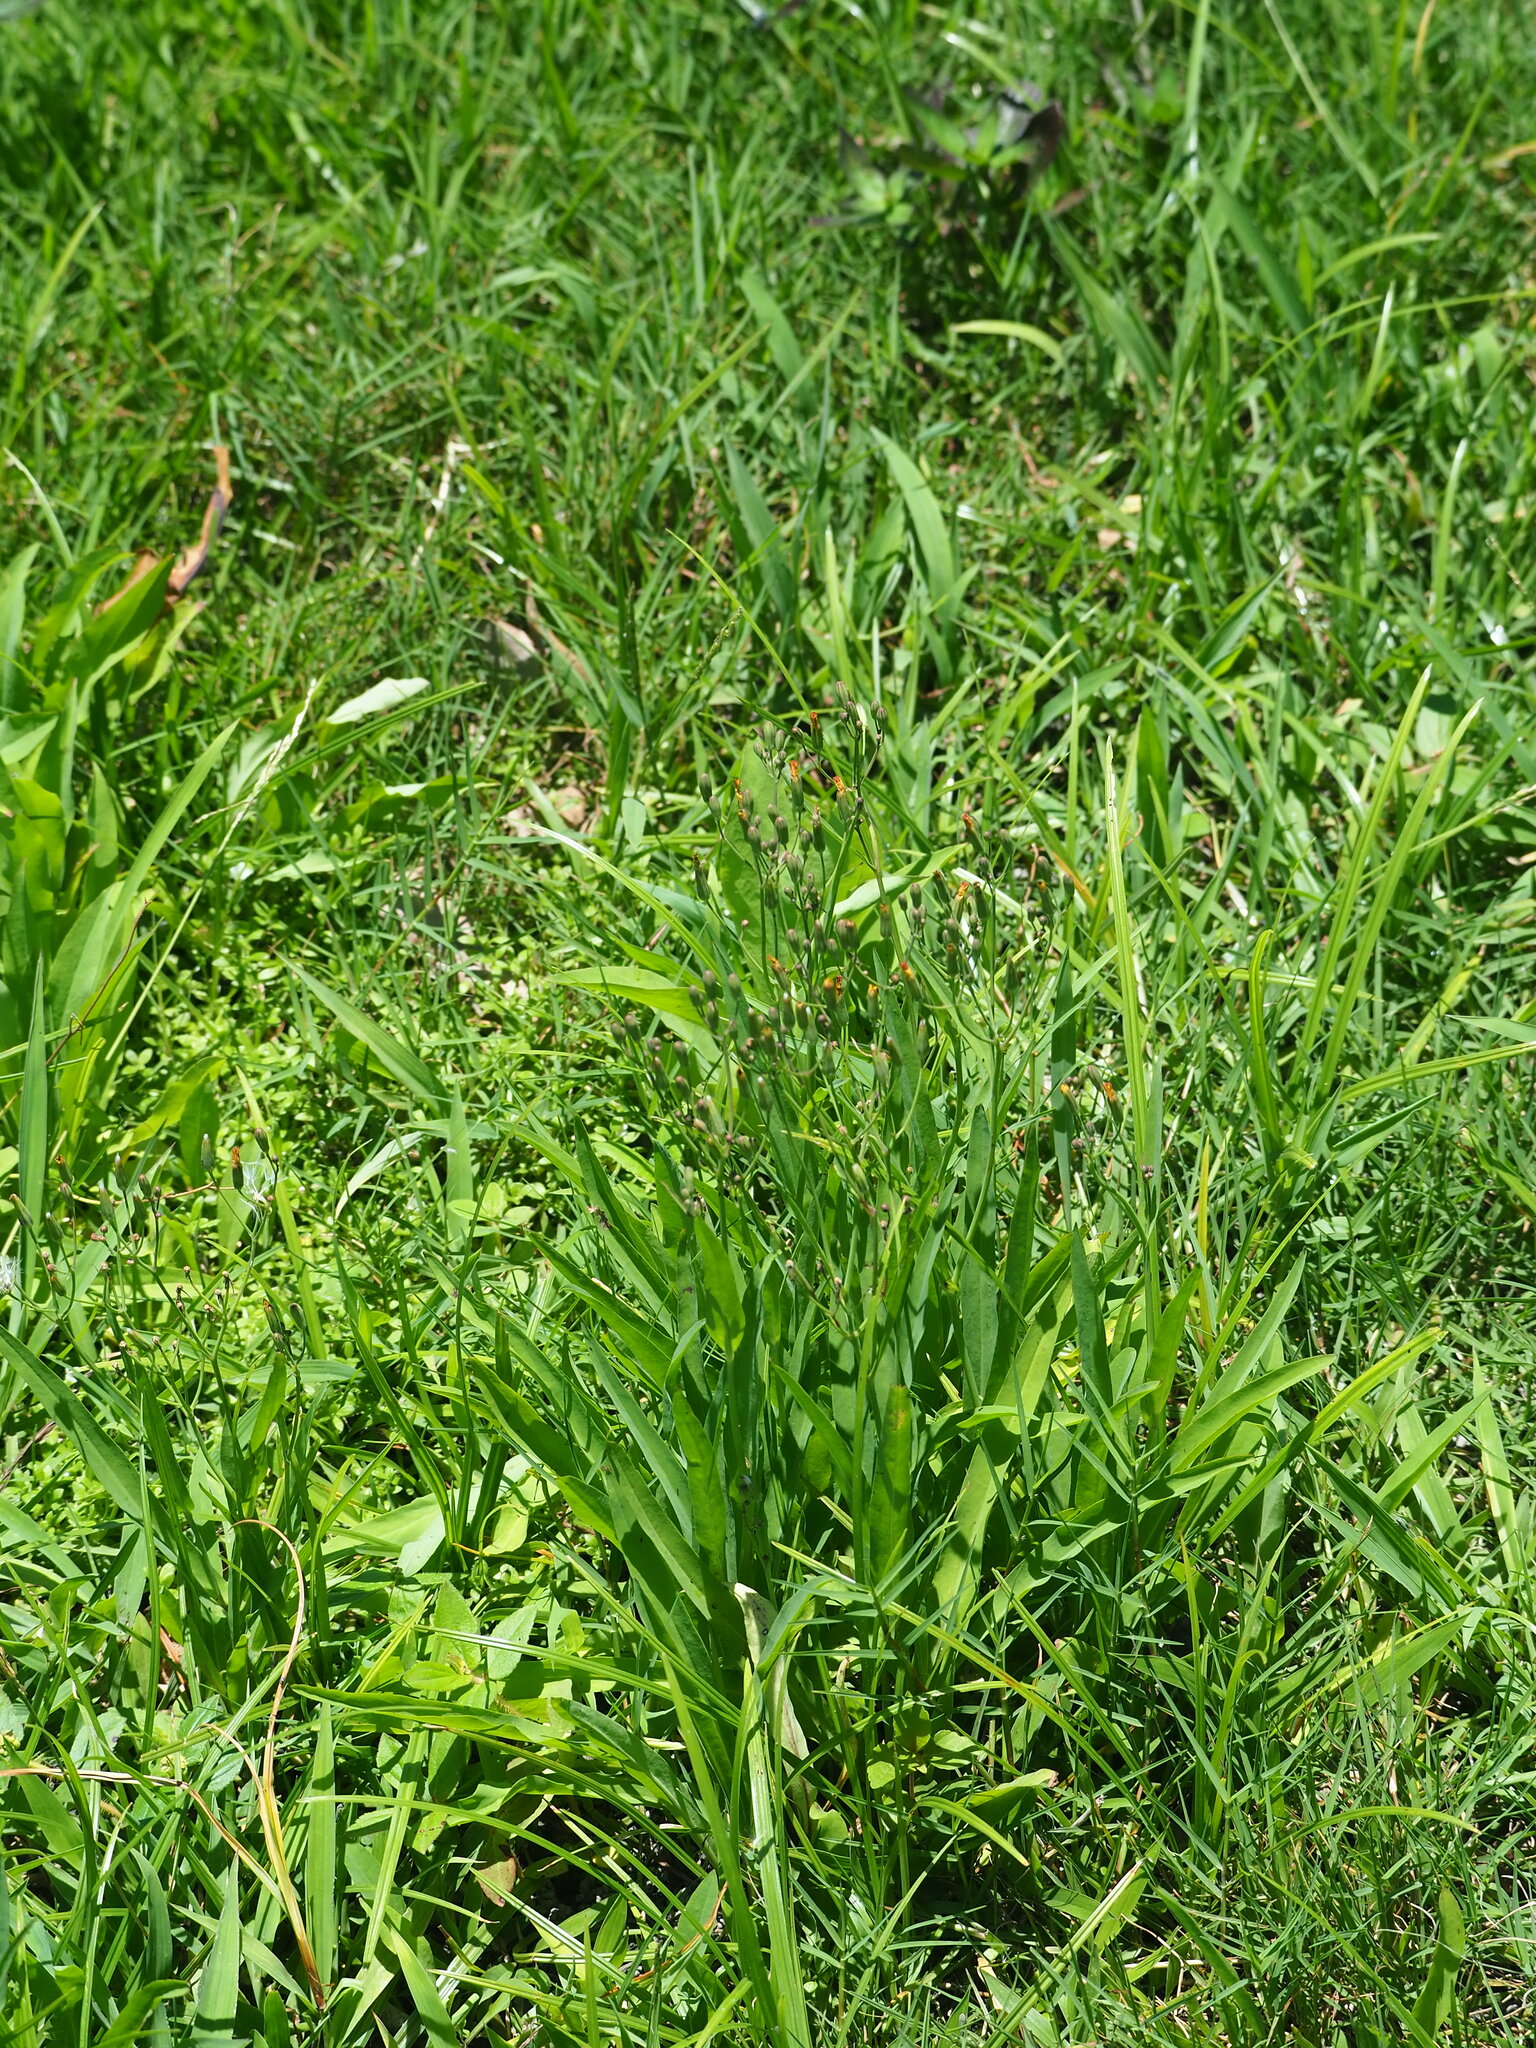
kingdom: Plantae
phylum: Tracheophyta
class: Magnoliopsida
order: Asterales
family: Asteraceae
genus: Ixeris
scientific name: Ixeris chinensis
